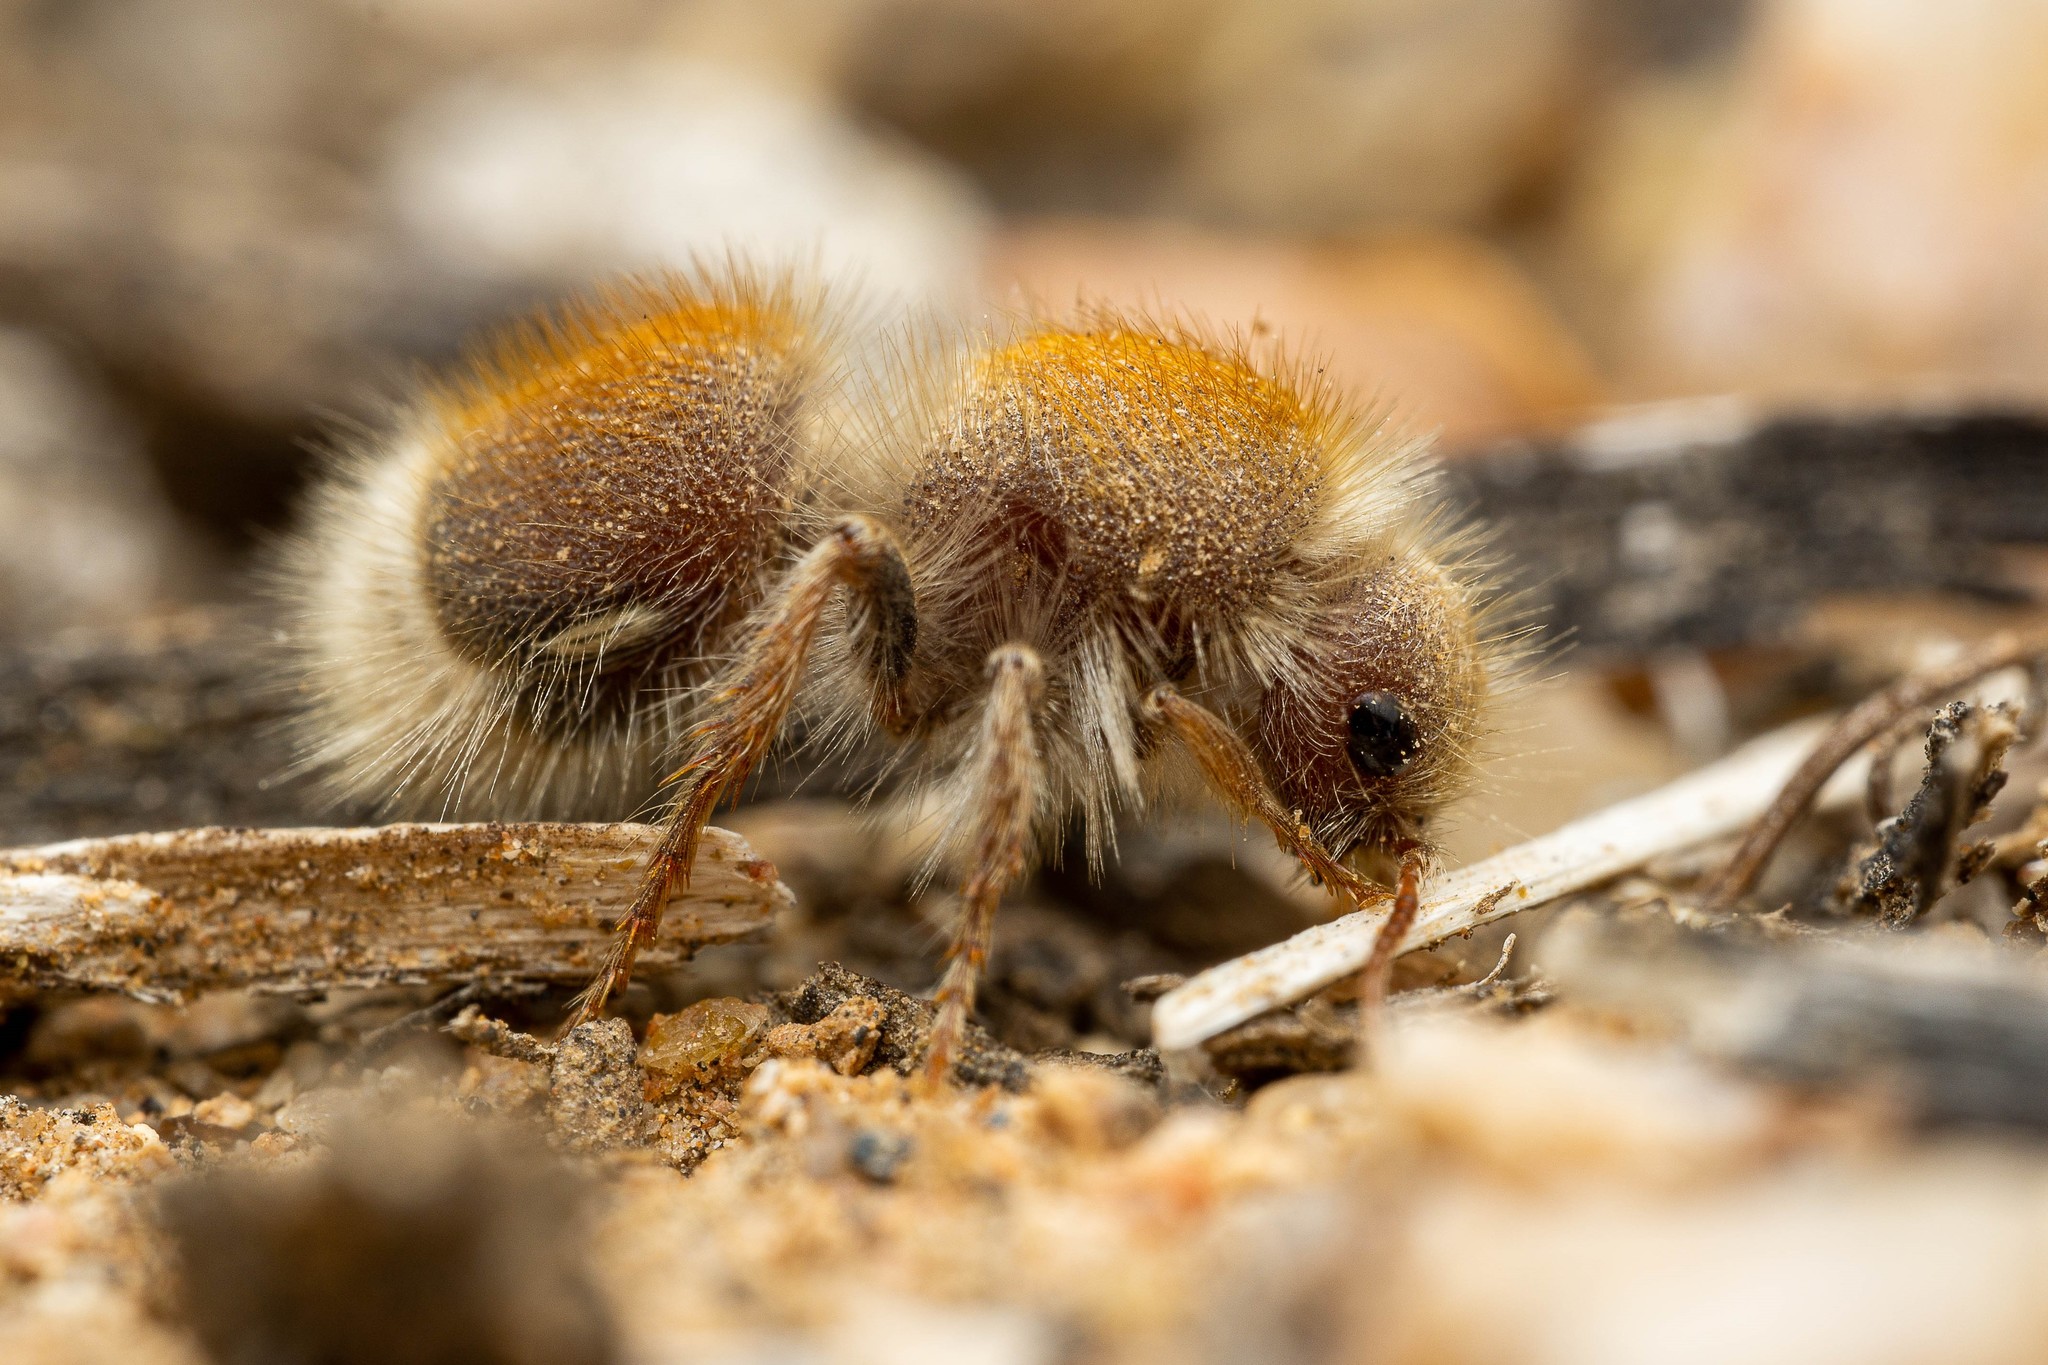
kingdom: Animalia
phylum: Arthropoda
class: Insecta
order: Hymenoptera
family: Mutillidae
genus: Dilophotopsis
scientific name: Dilophotopsis
